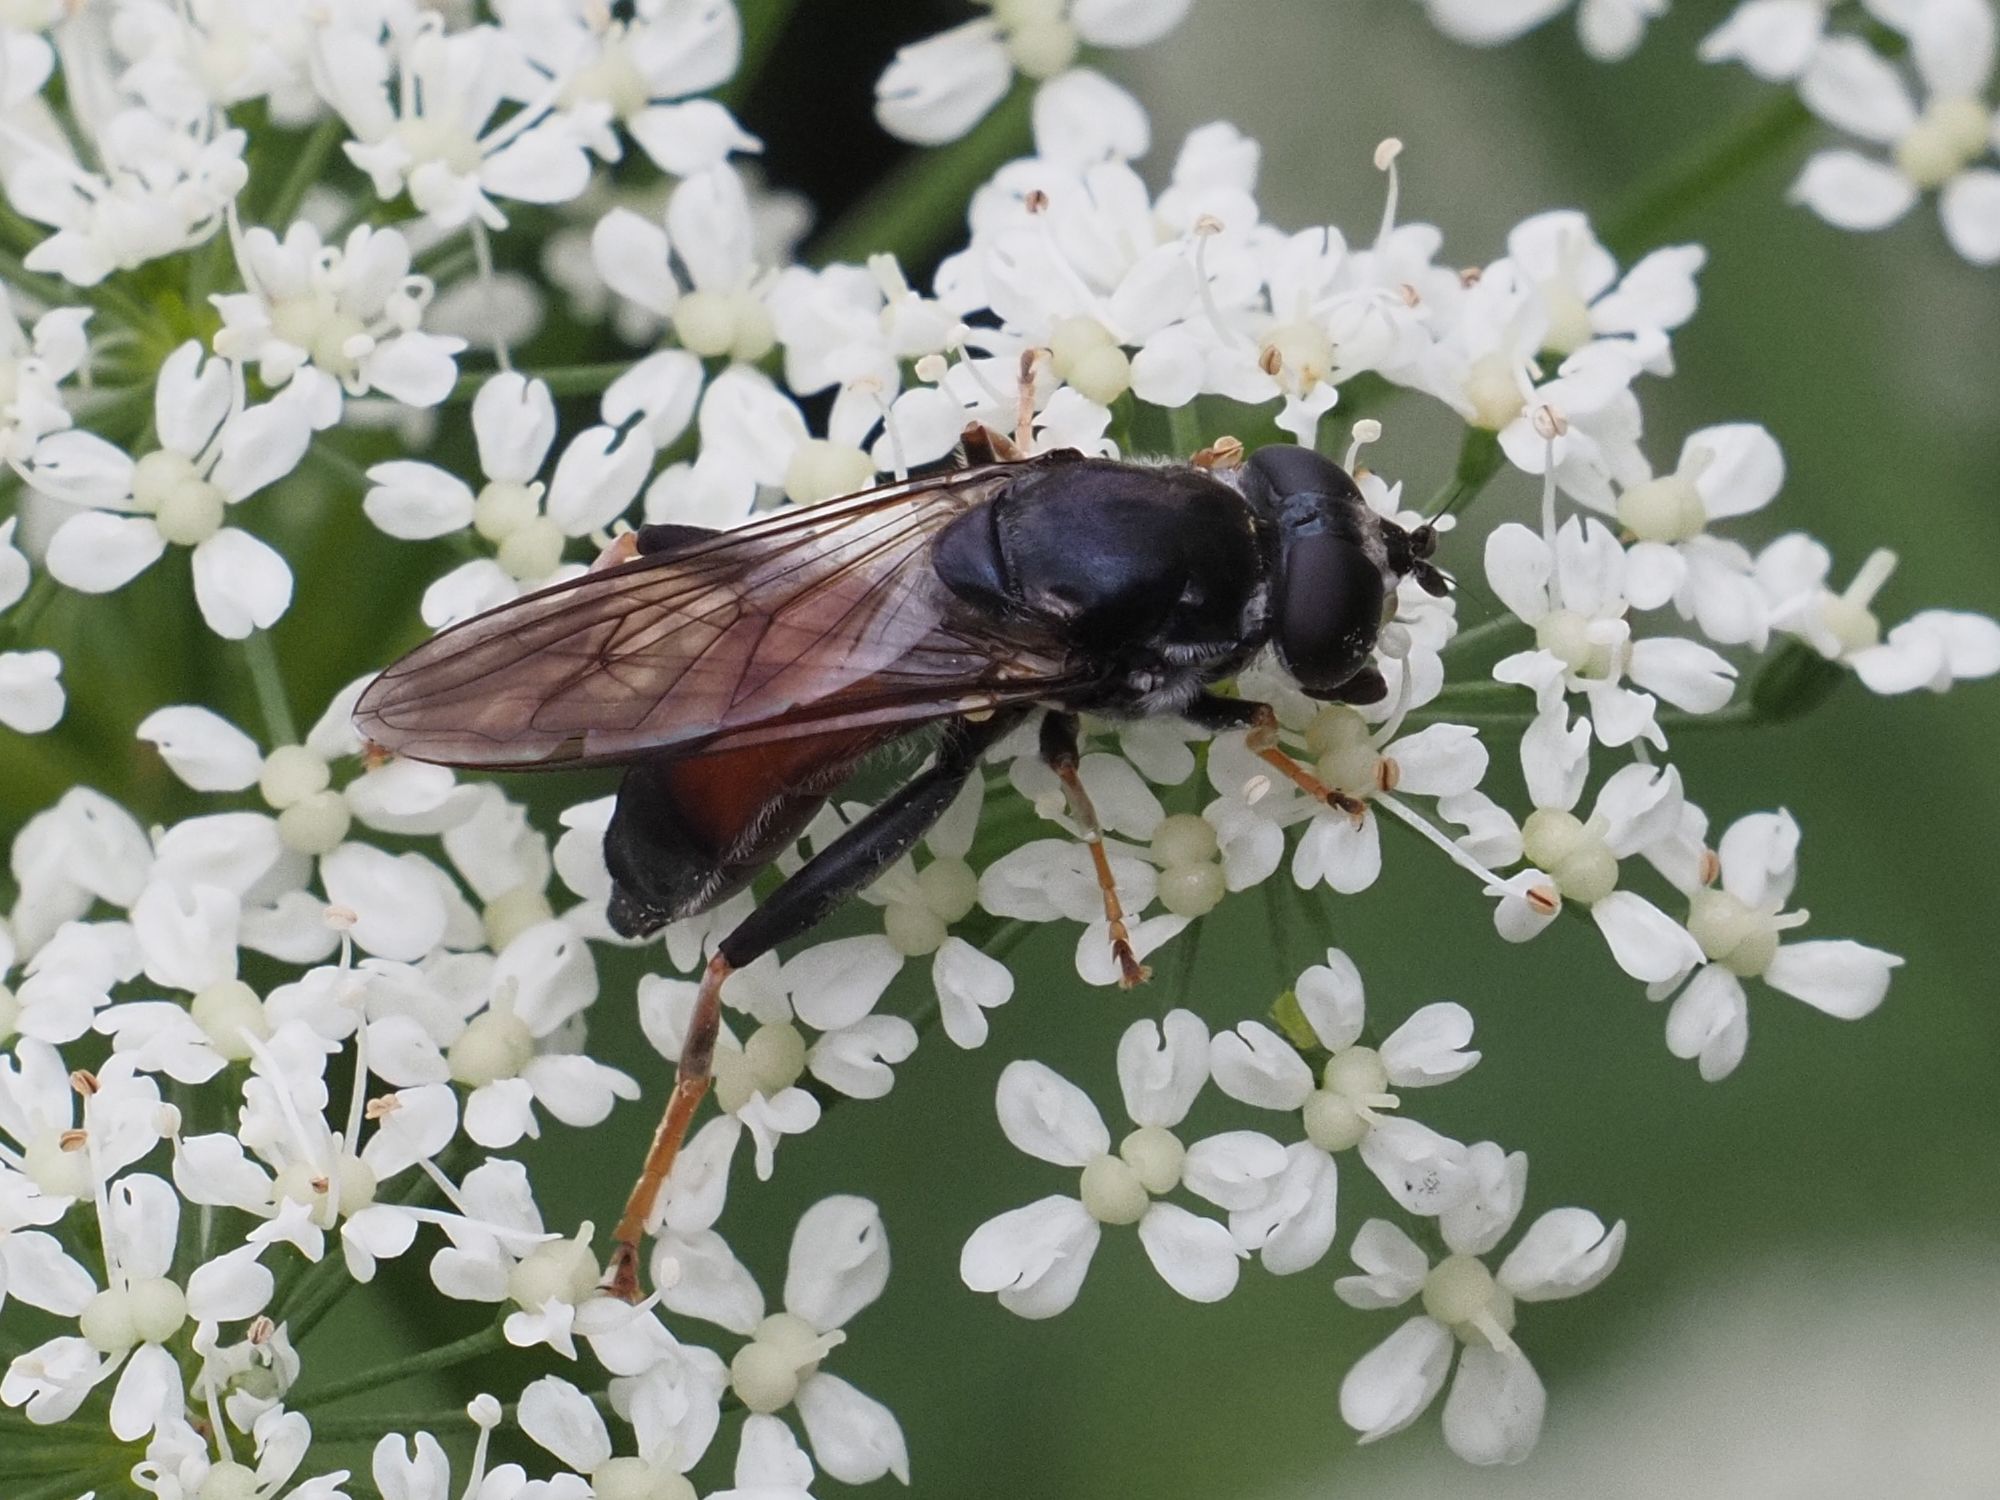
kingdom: Animalia
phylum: Arthropoda
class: Insecta
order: Diptera
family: Syrphidae
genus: Xylota
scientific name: Xylota ignava
